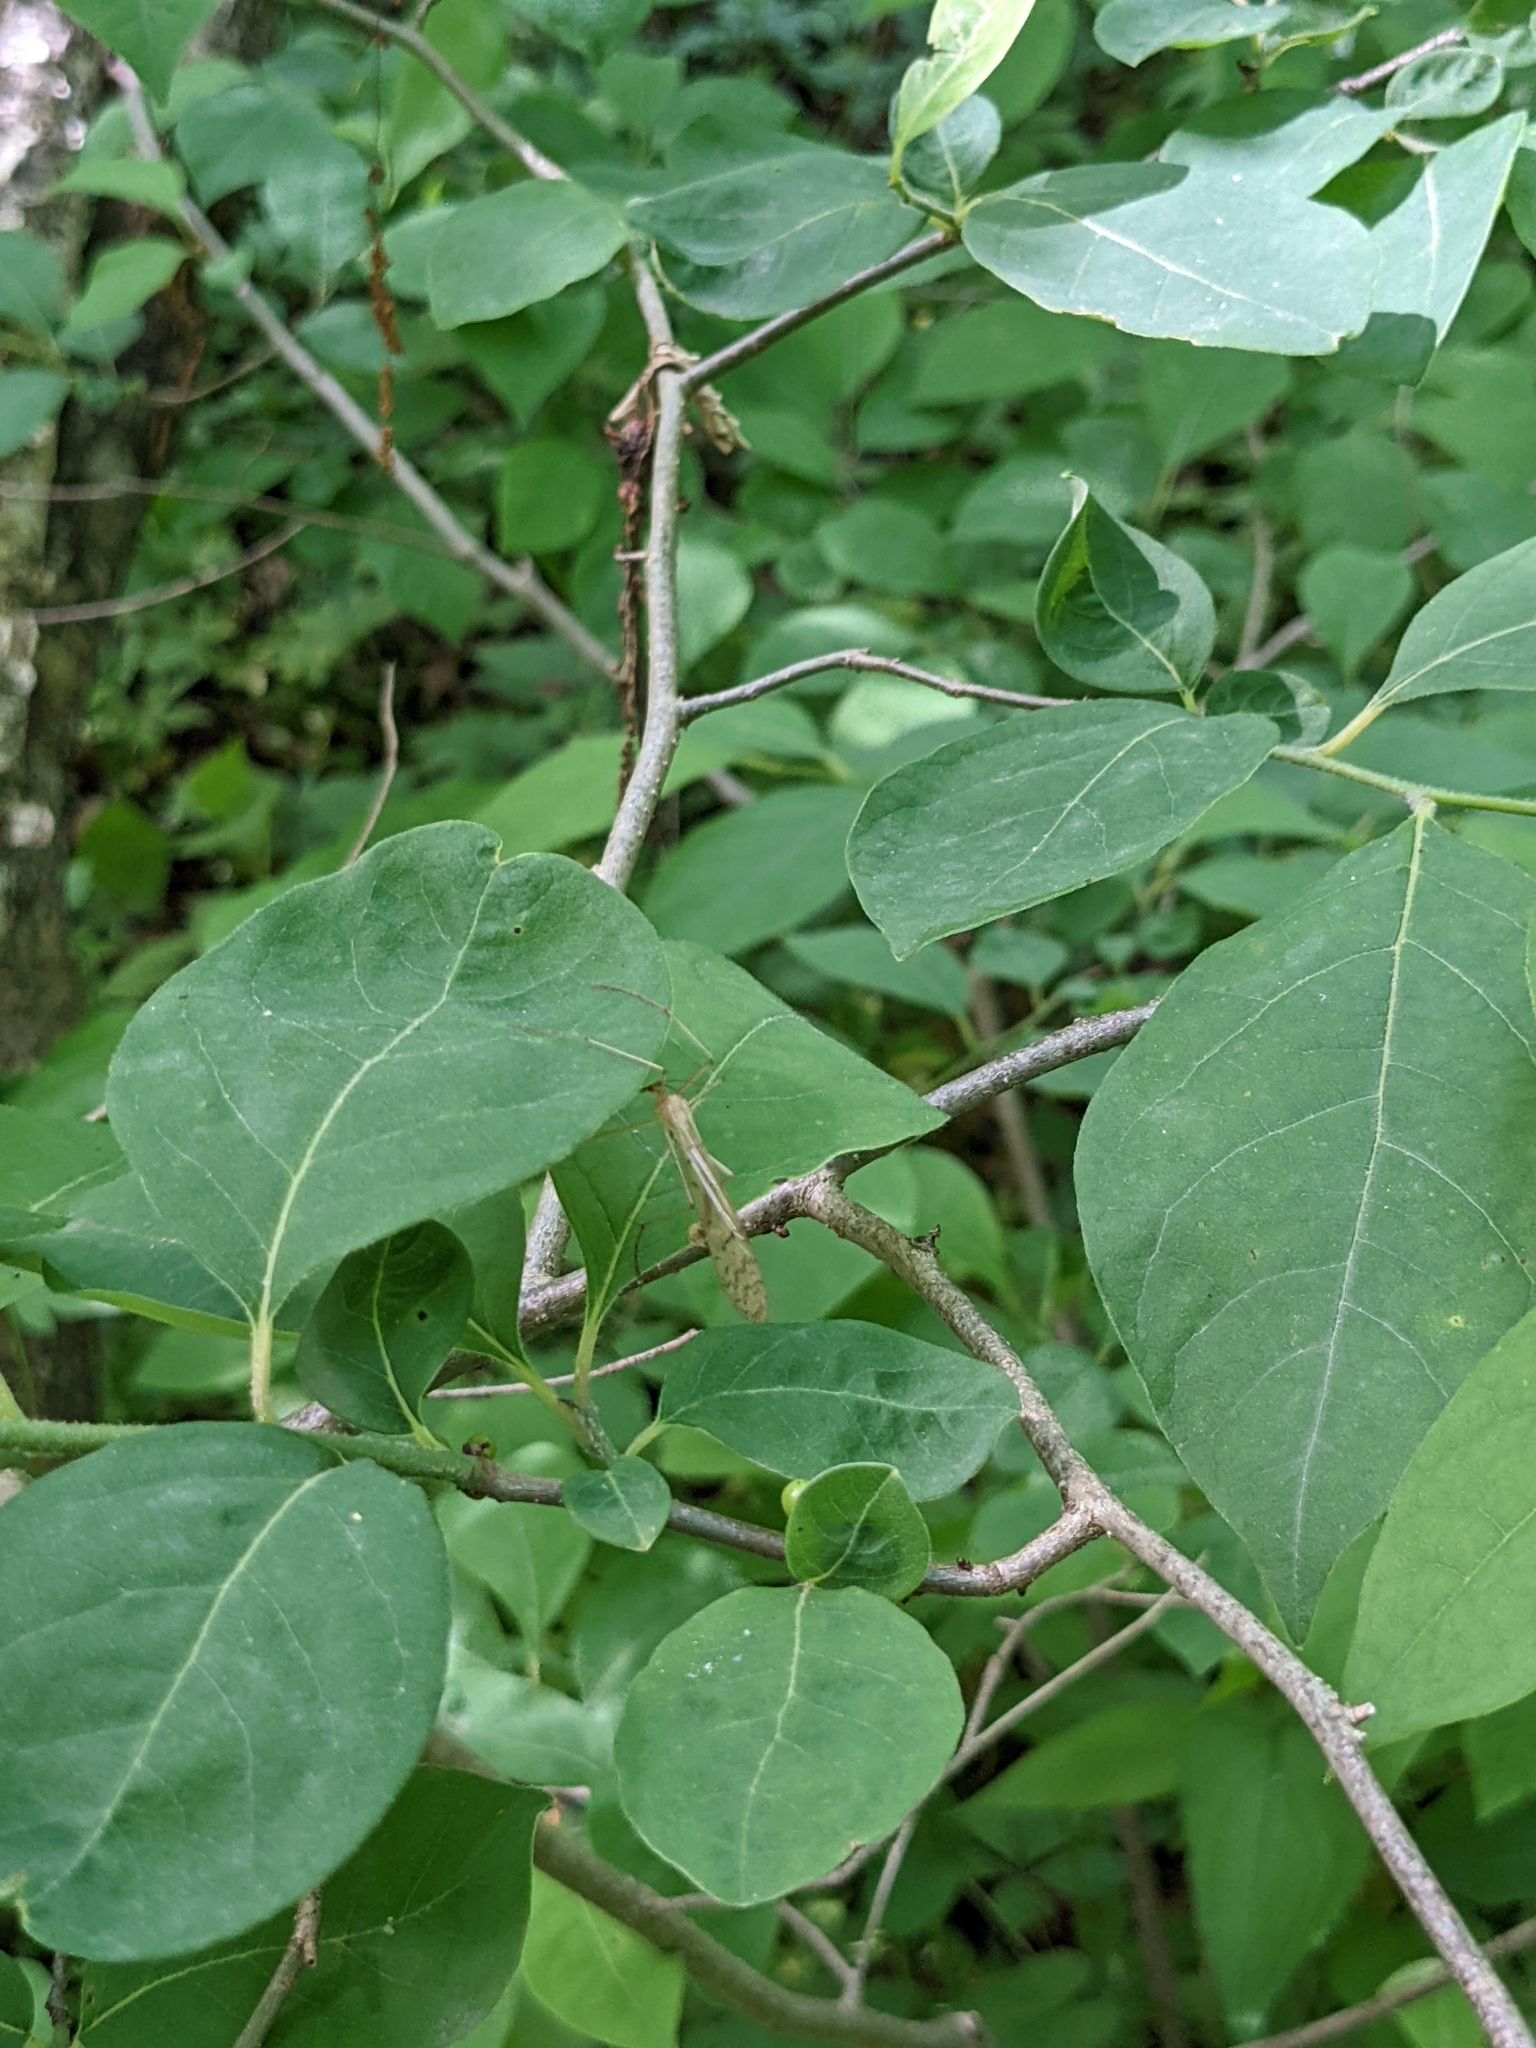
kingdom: Animalia
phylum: Arthropoda
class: Insecta
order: Mecoptera
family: Bittacidae
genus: Bittacus
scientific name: Bittacus strigosus
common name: Thin hangingfly
